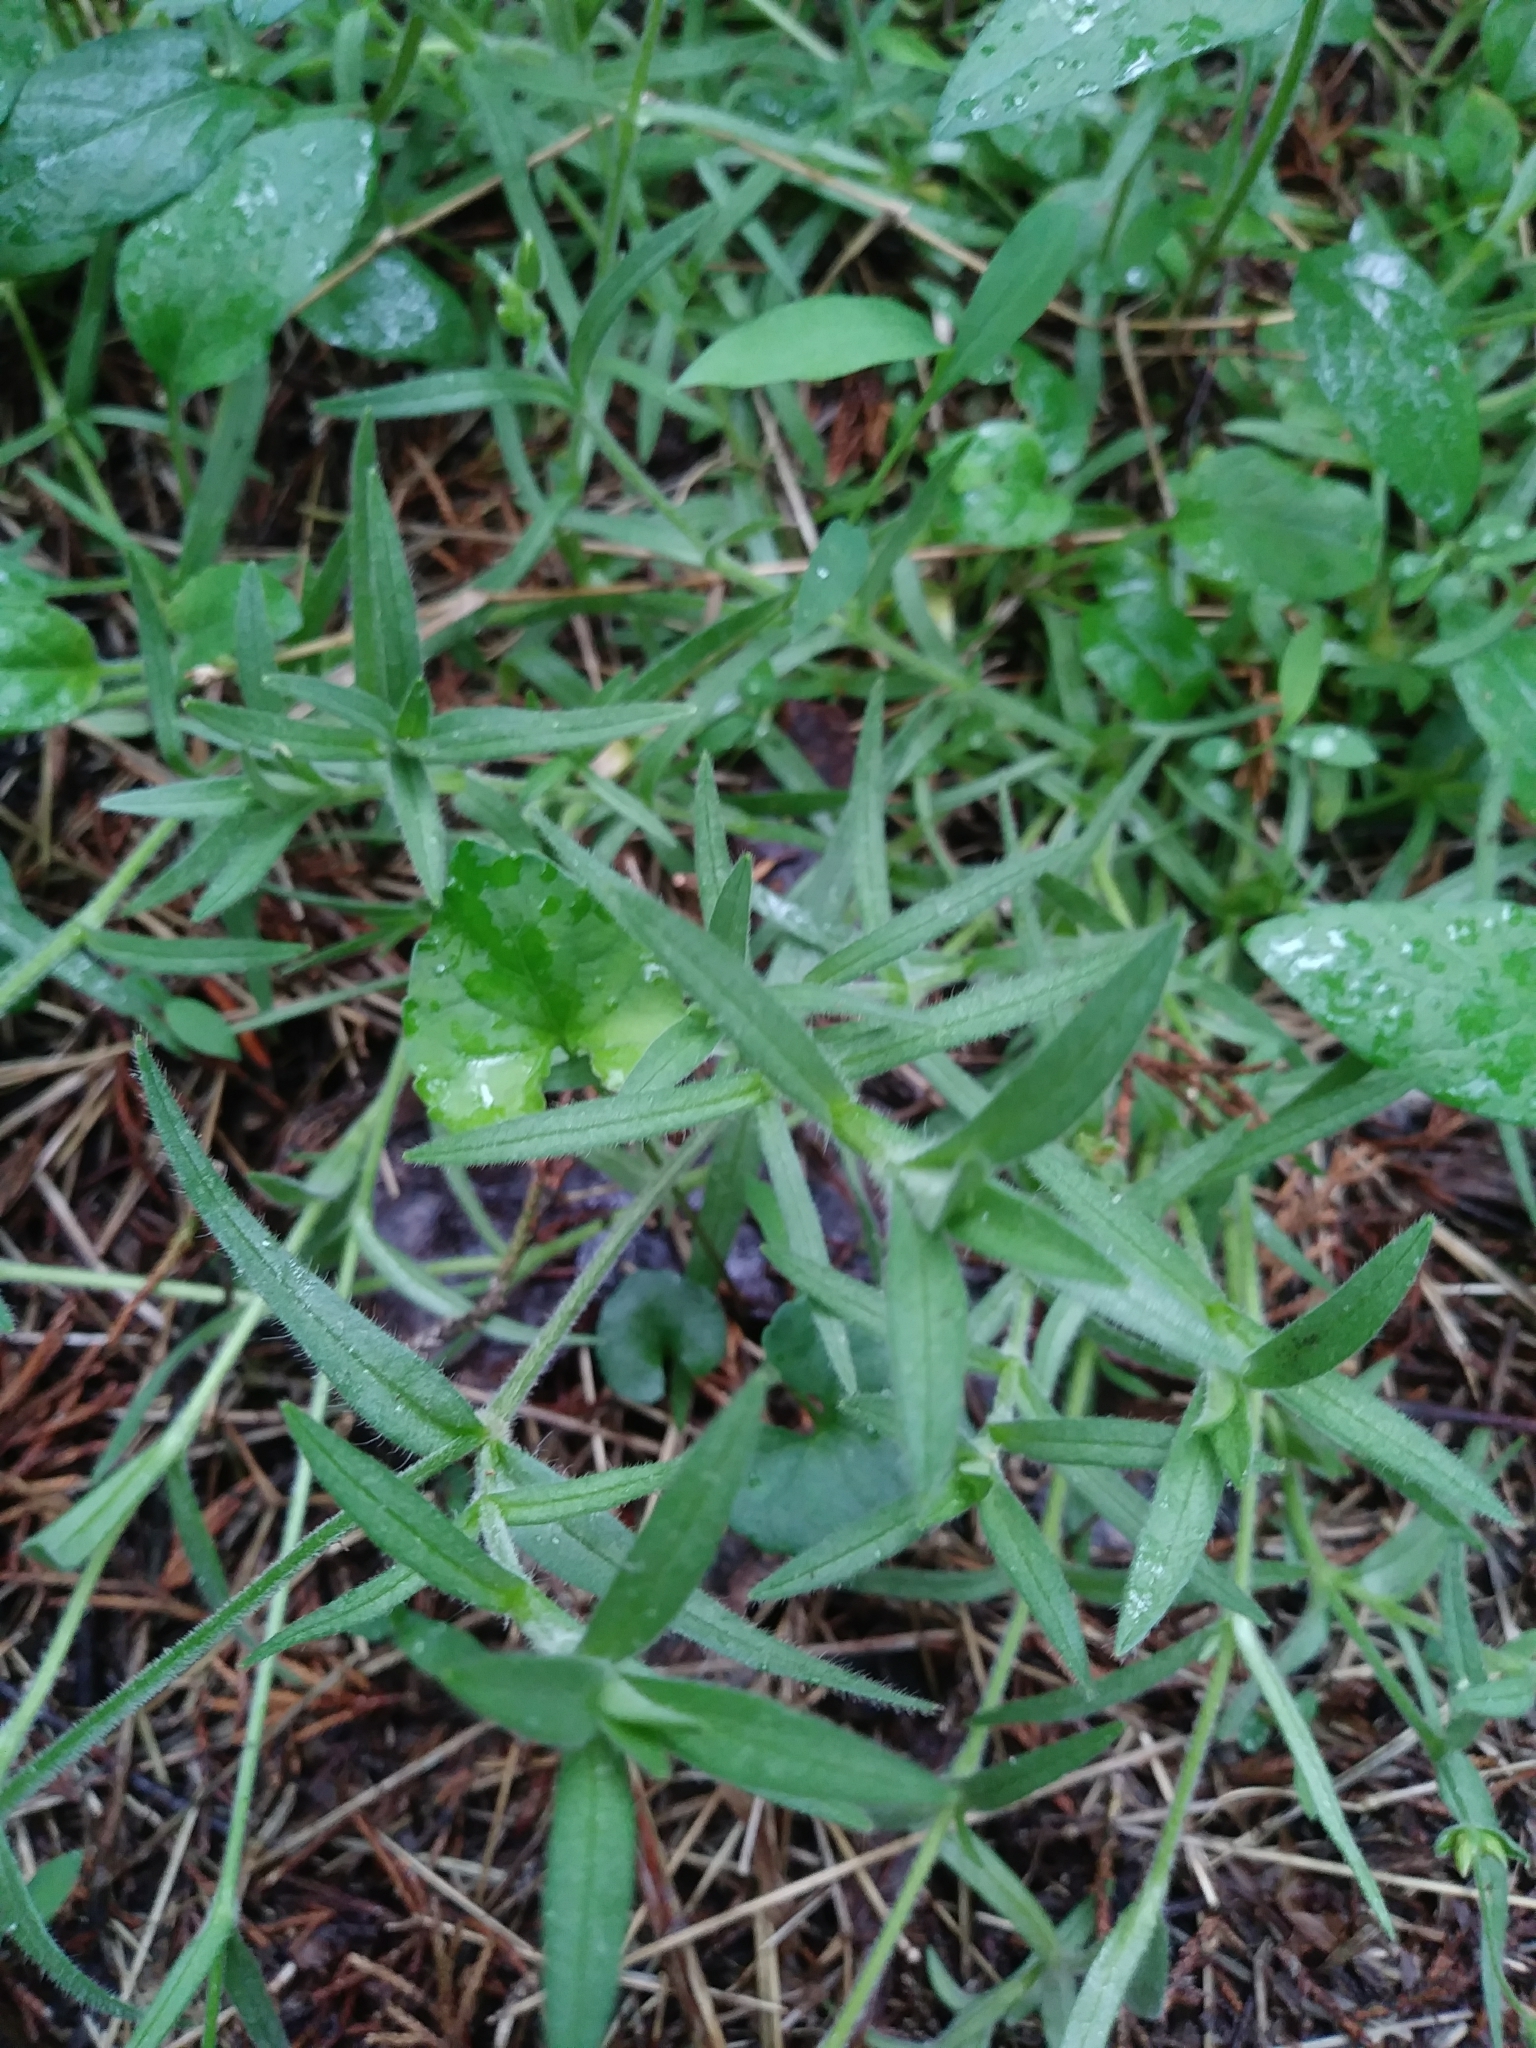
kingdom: Plantae
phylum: Tracheophyta
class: Magnoliopsida
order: Caryophyllales
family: Caryophyllaceae
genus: Cerastium
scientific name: Cerastium velutinum
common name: Barren chickweed
